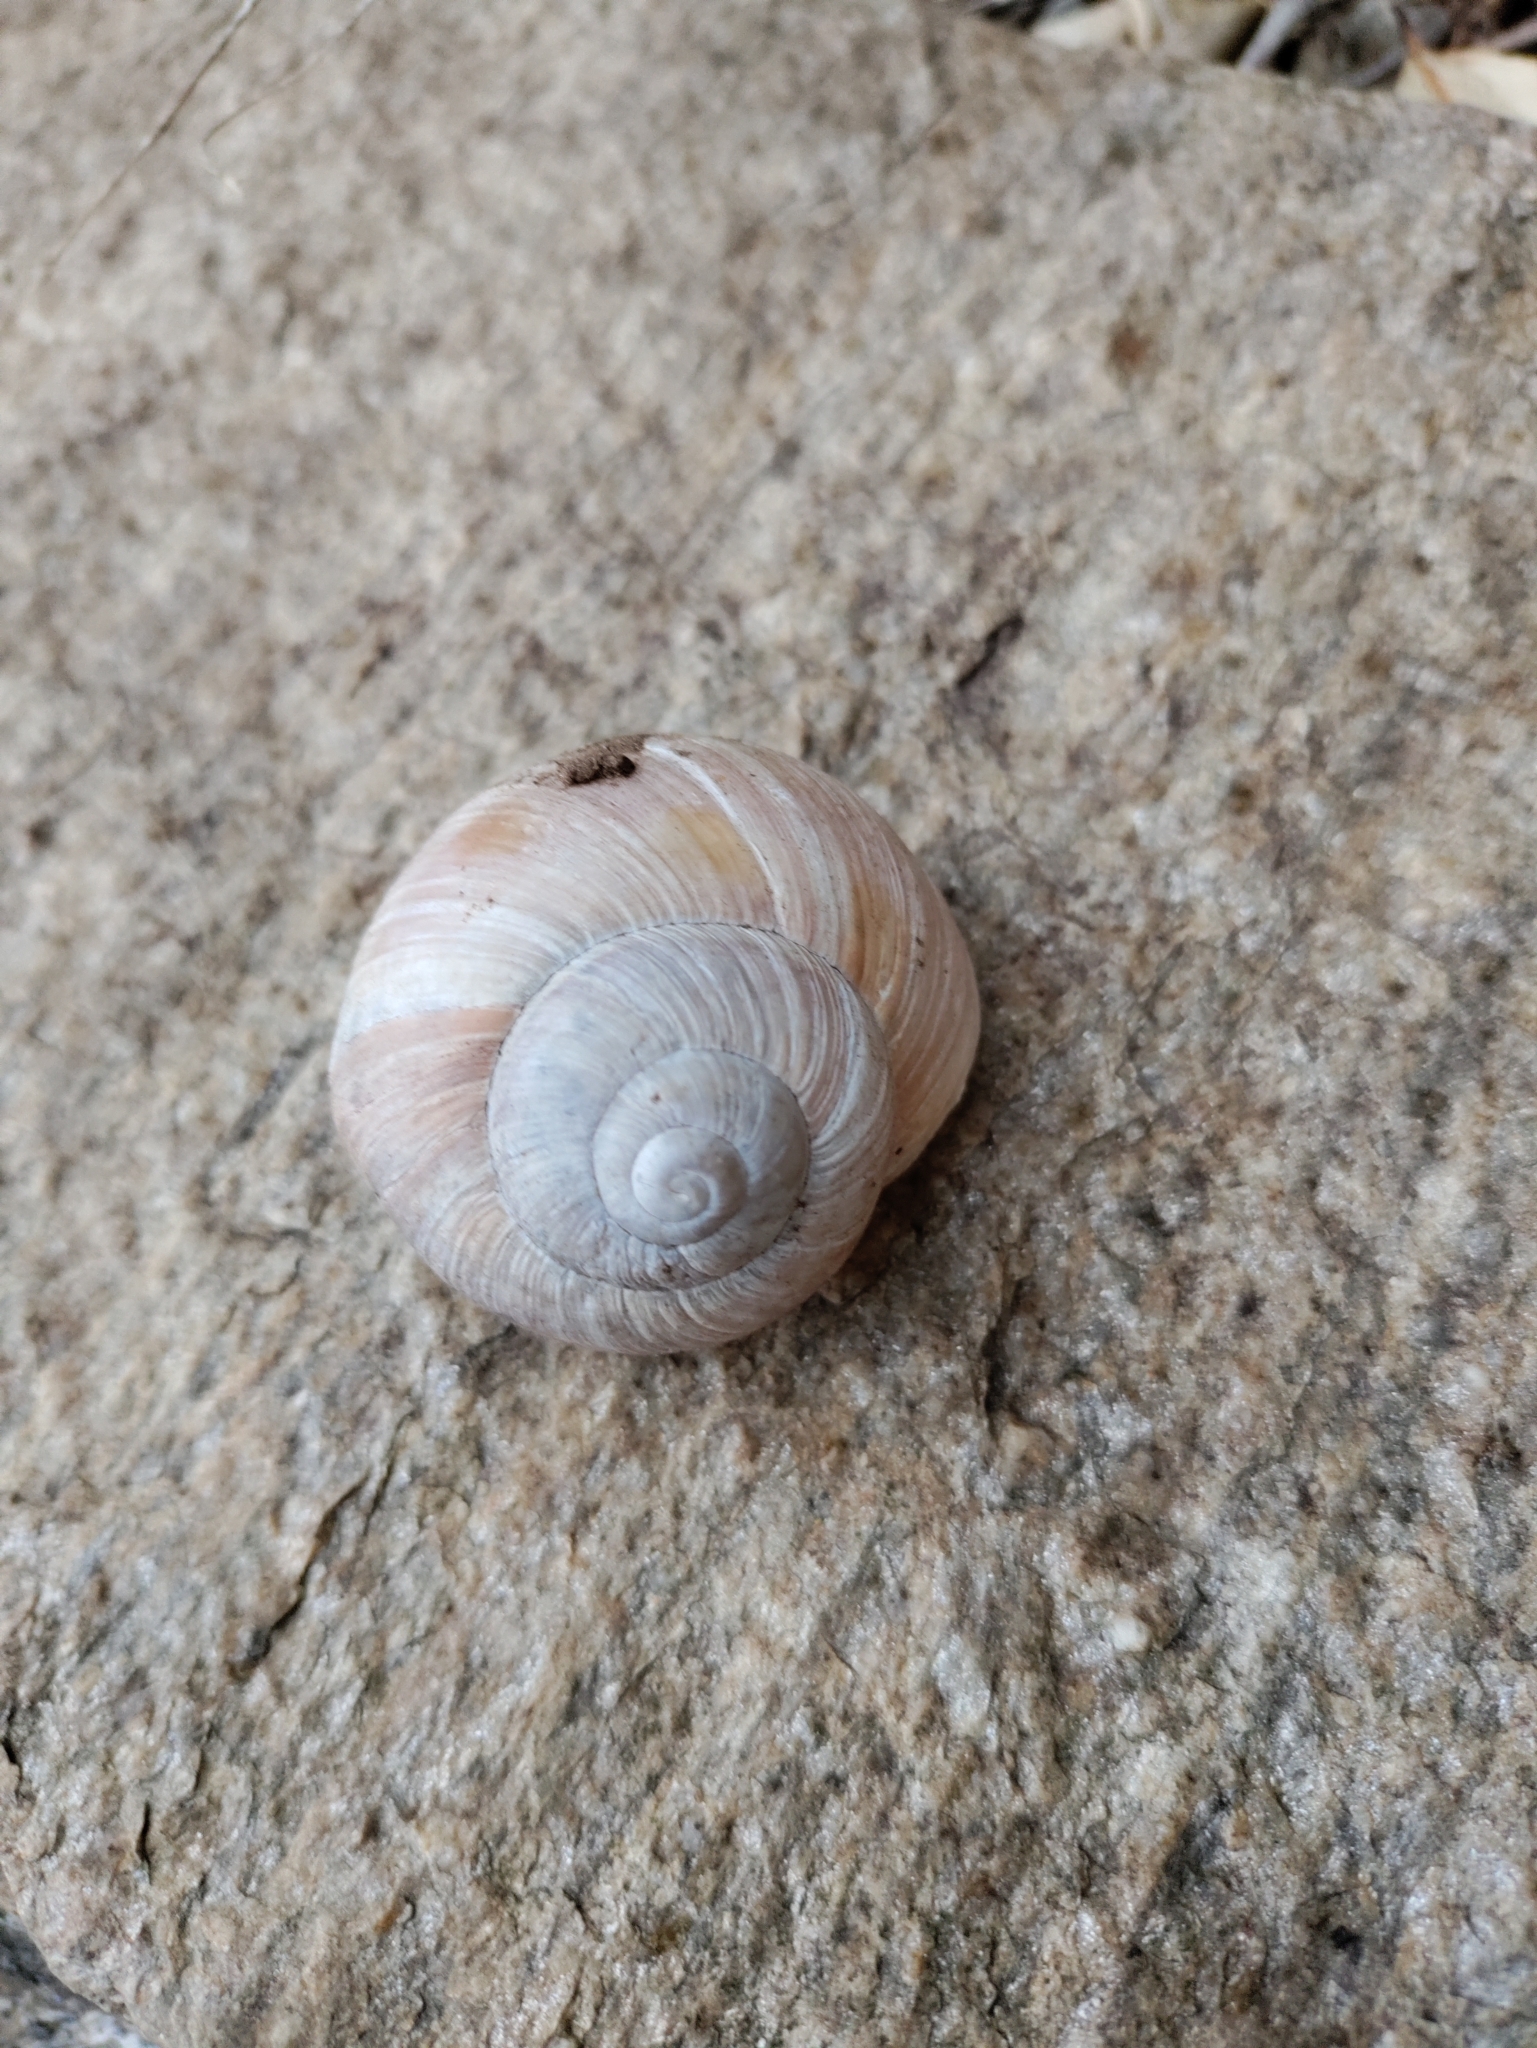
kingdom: Animalia
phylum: Mollusca
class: Gastropoda
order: Stylommatophora
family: Helicidae
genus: Helix
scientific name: Helix pomatia
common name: Roman snail
